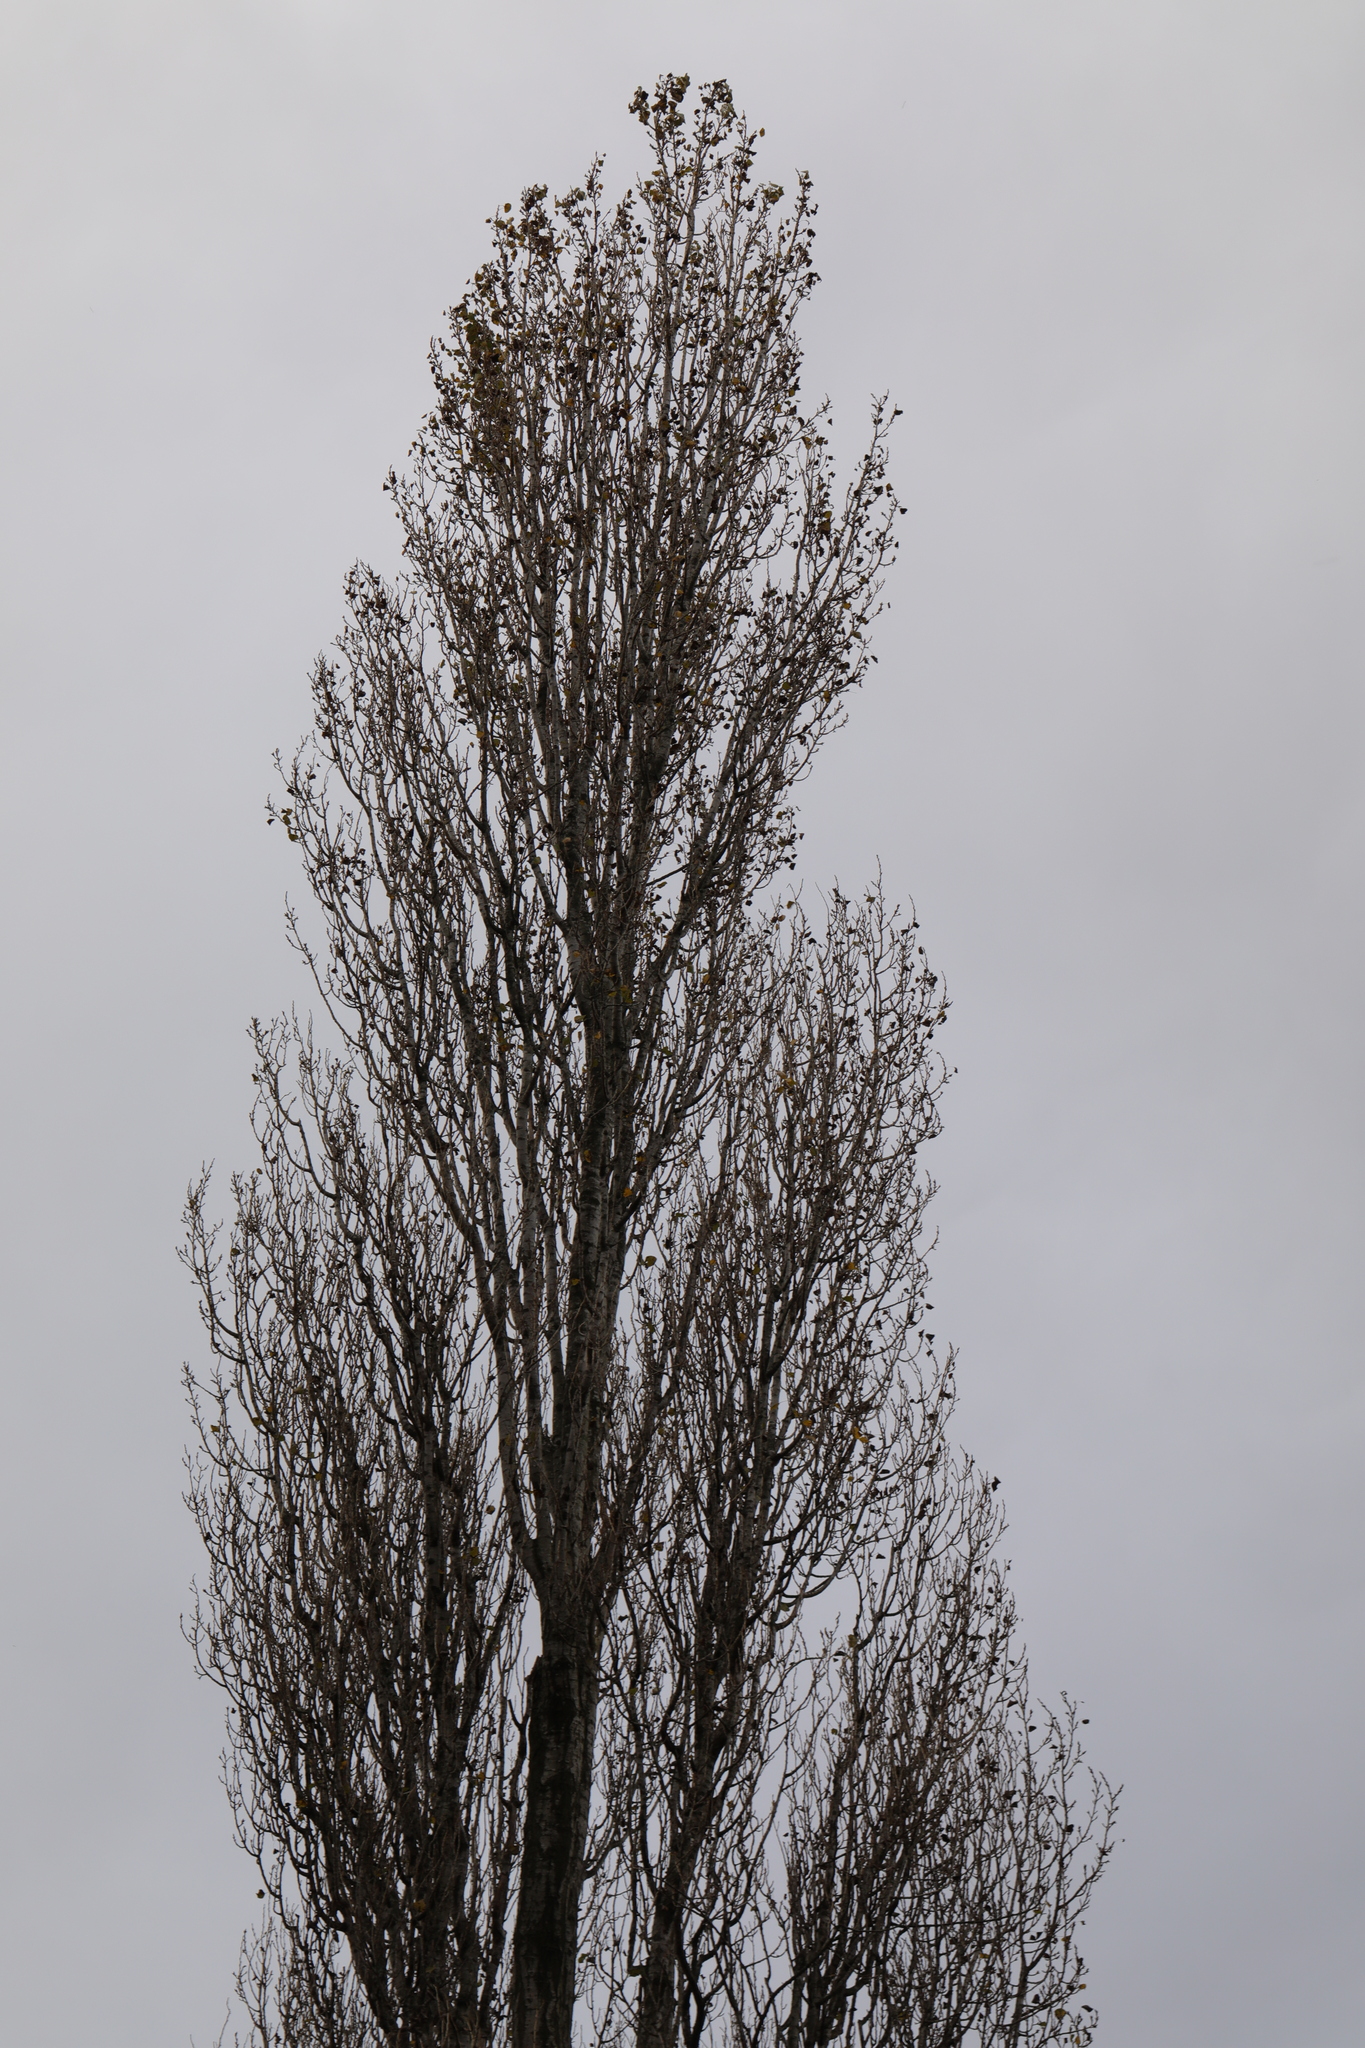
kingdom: Plantae
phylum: Tracheophyta
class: Magnoliopsida
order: Malpighiales
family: Salicaceae
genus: Populus
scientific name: Populus nigra
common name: Black poplar
